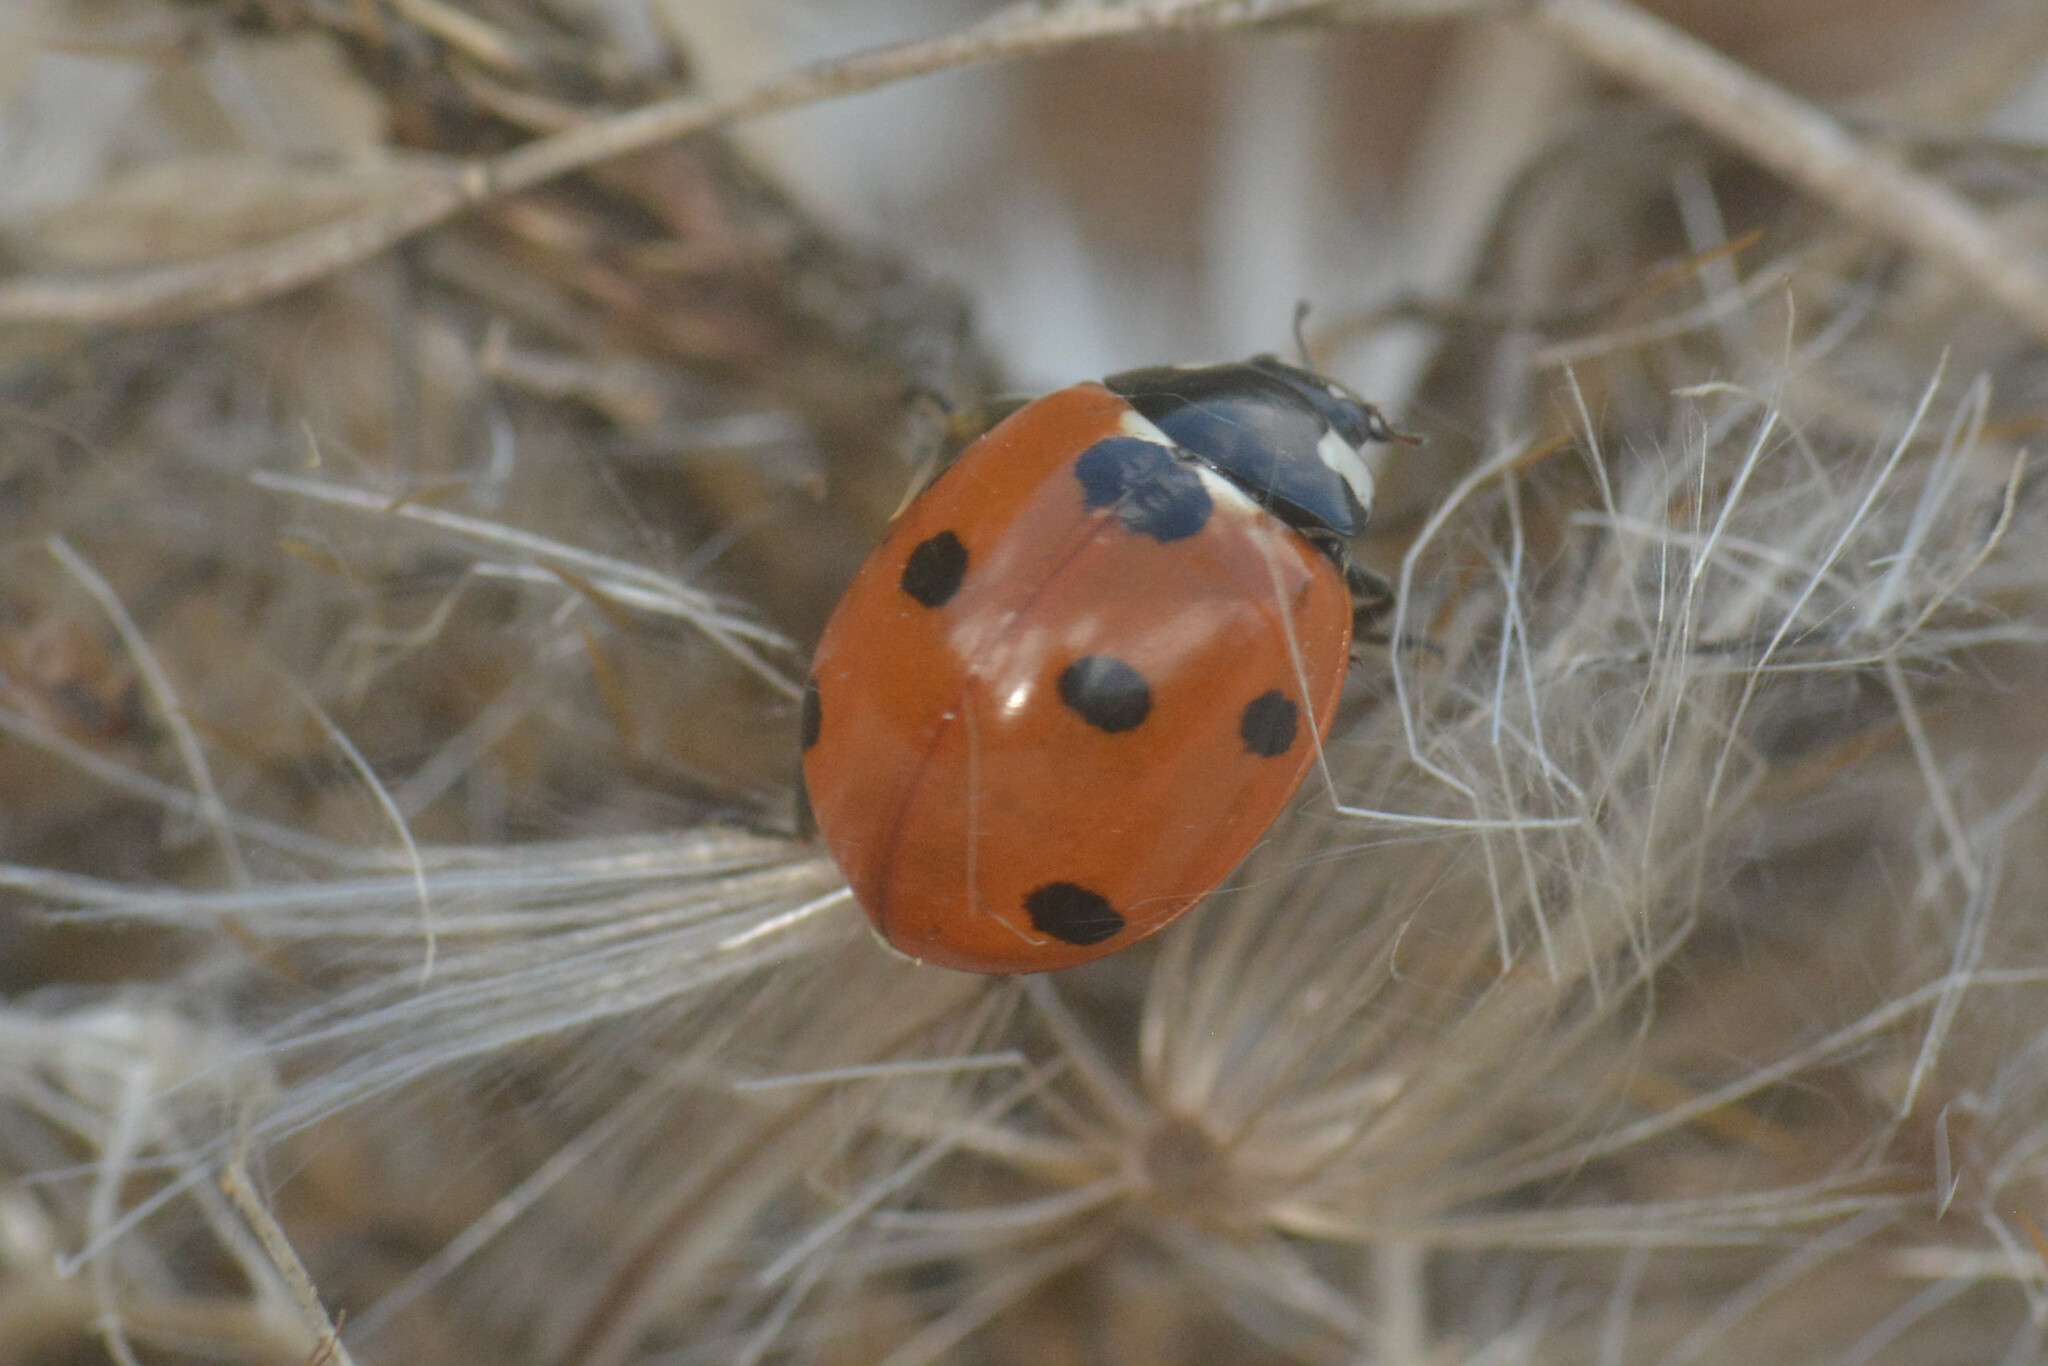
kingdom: Animalia
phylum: Arthropoda
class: Insecta
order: Coleoptera
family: Coccinellidae
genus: Coccinella
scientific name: Coccinella septempunctata
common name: Sevenspotted lady beetle
